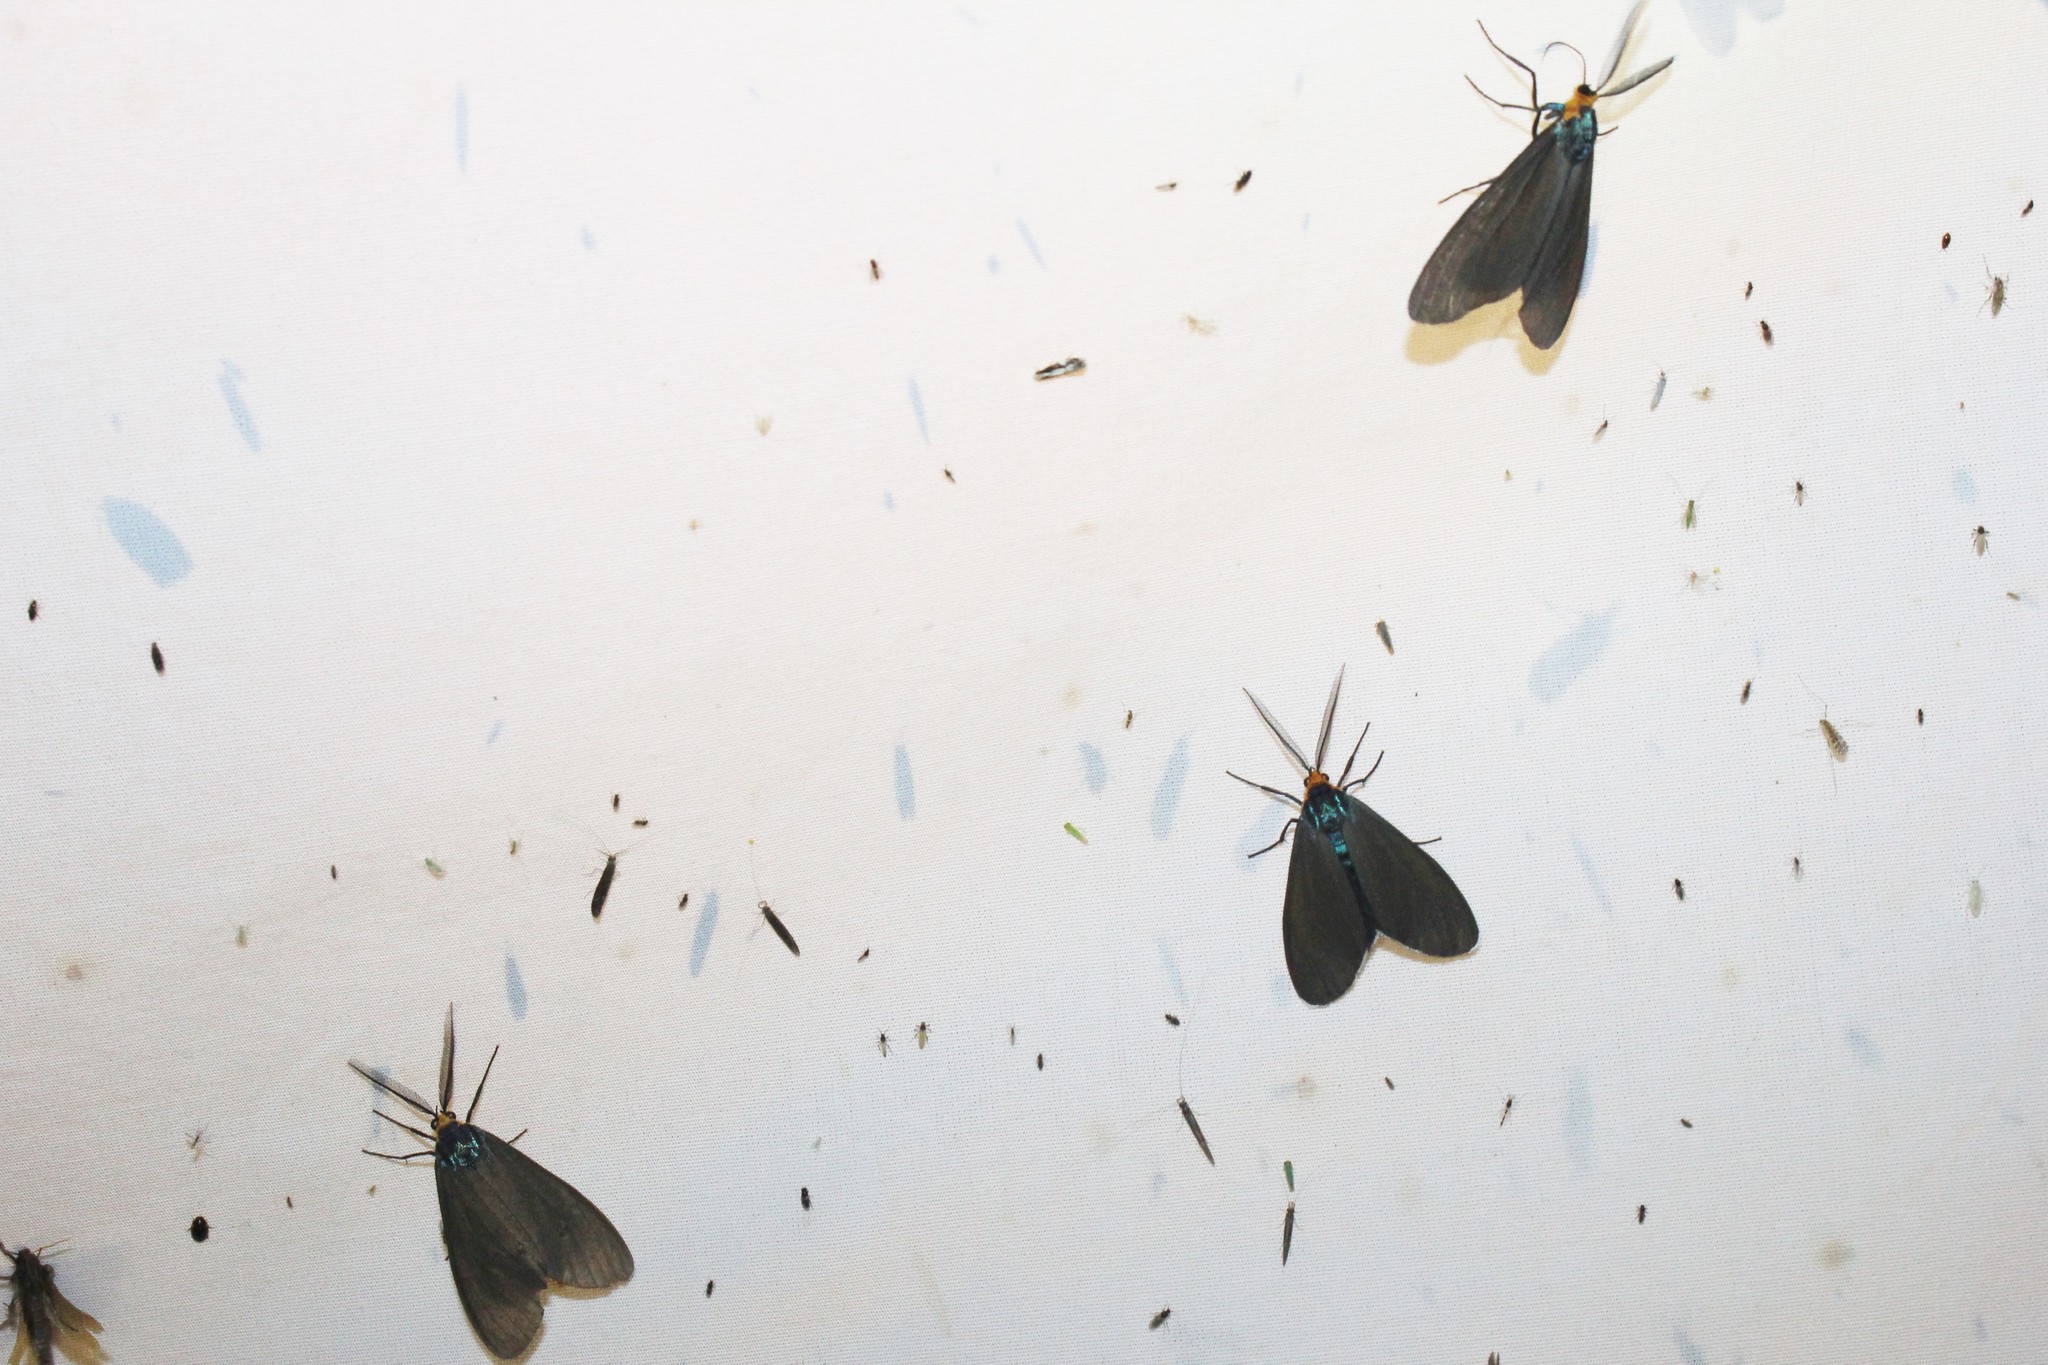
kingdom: Animalia
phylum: Arthropoda
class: Insecta
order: Lepidoptera
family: Erebidae
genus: Ctenucha
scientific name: Ctenucha virginica
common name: Virginia ctenucha moth
